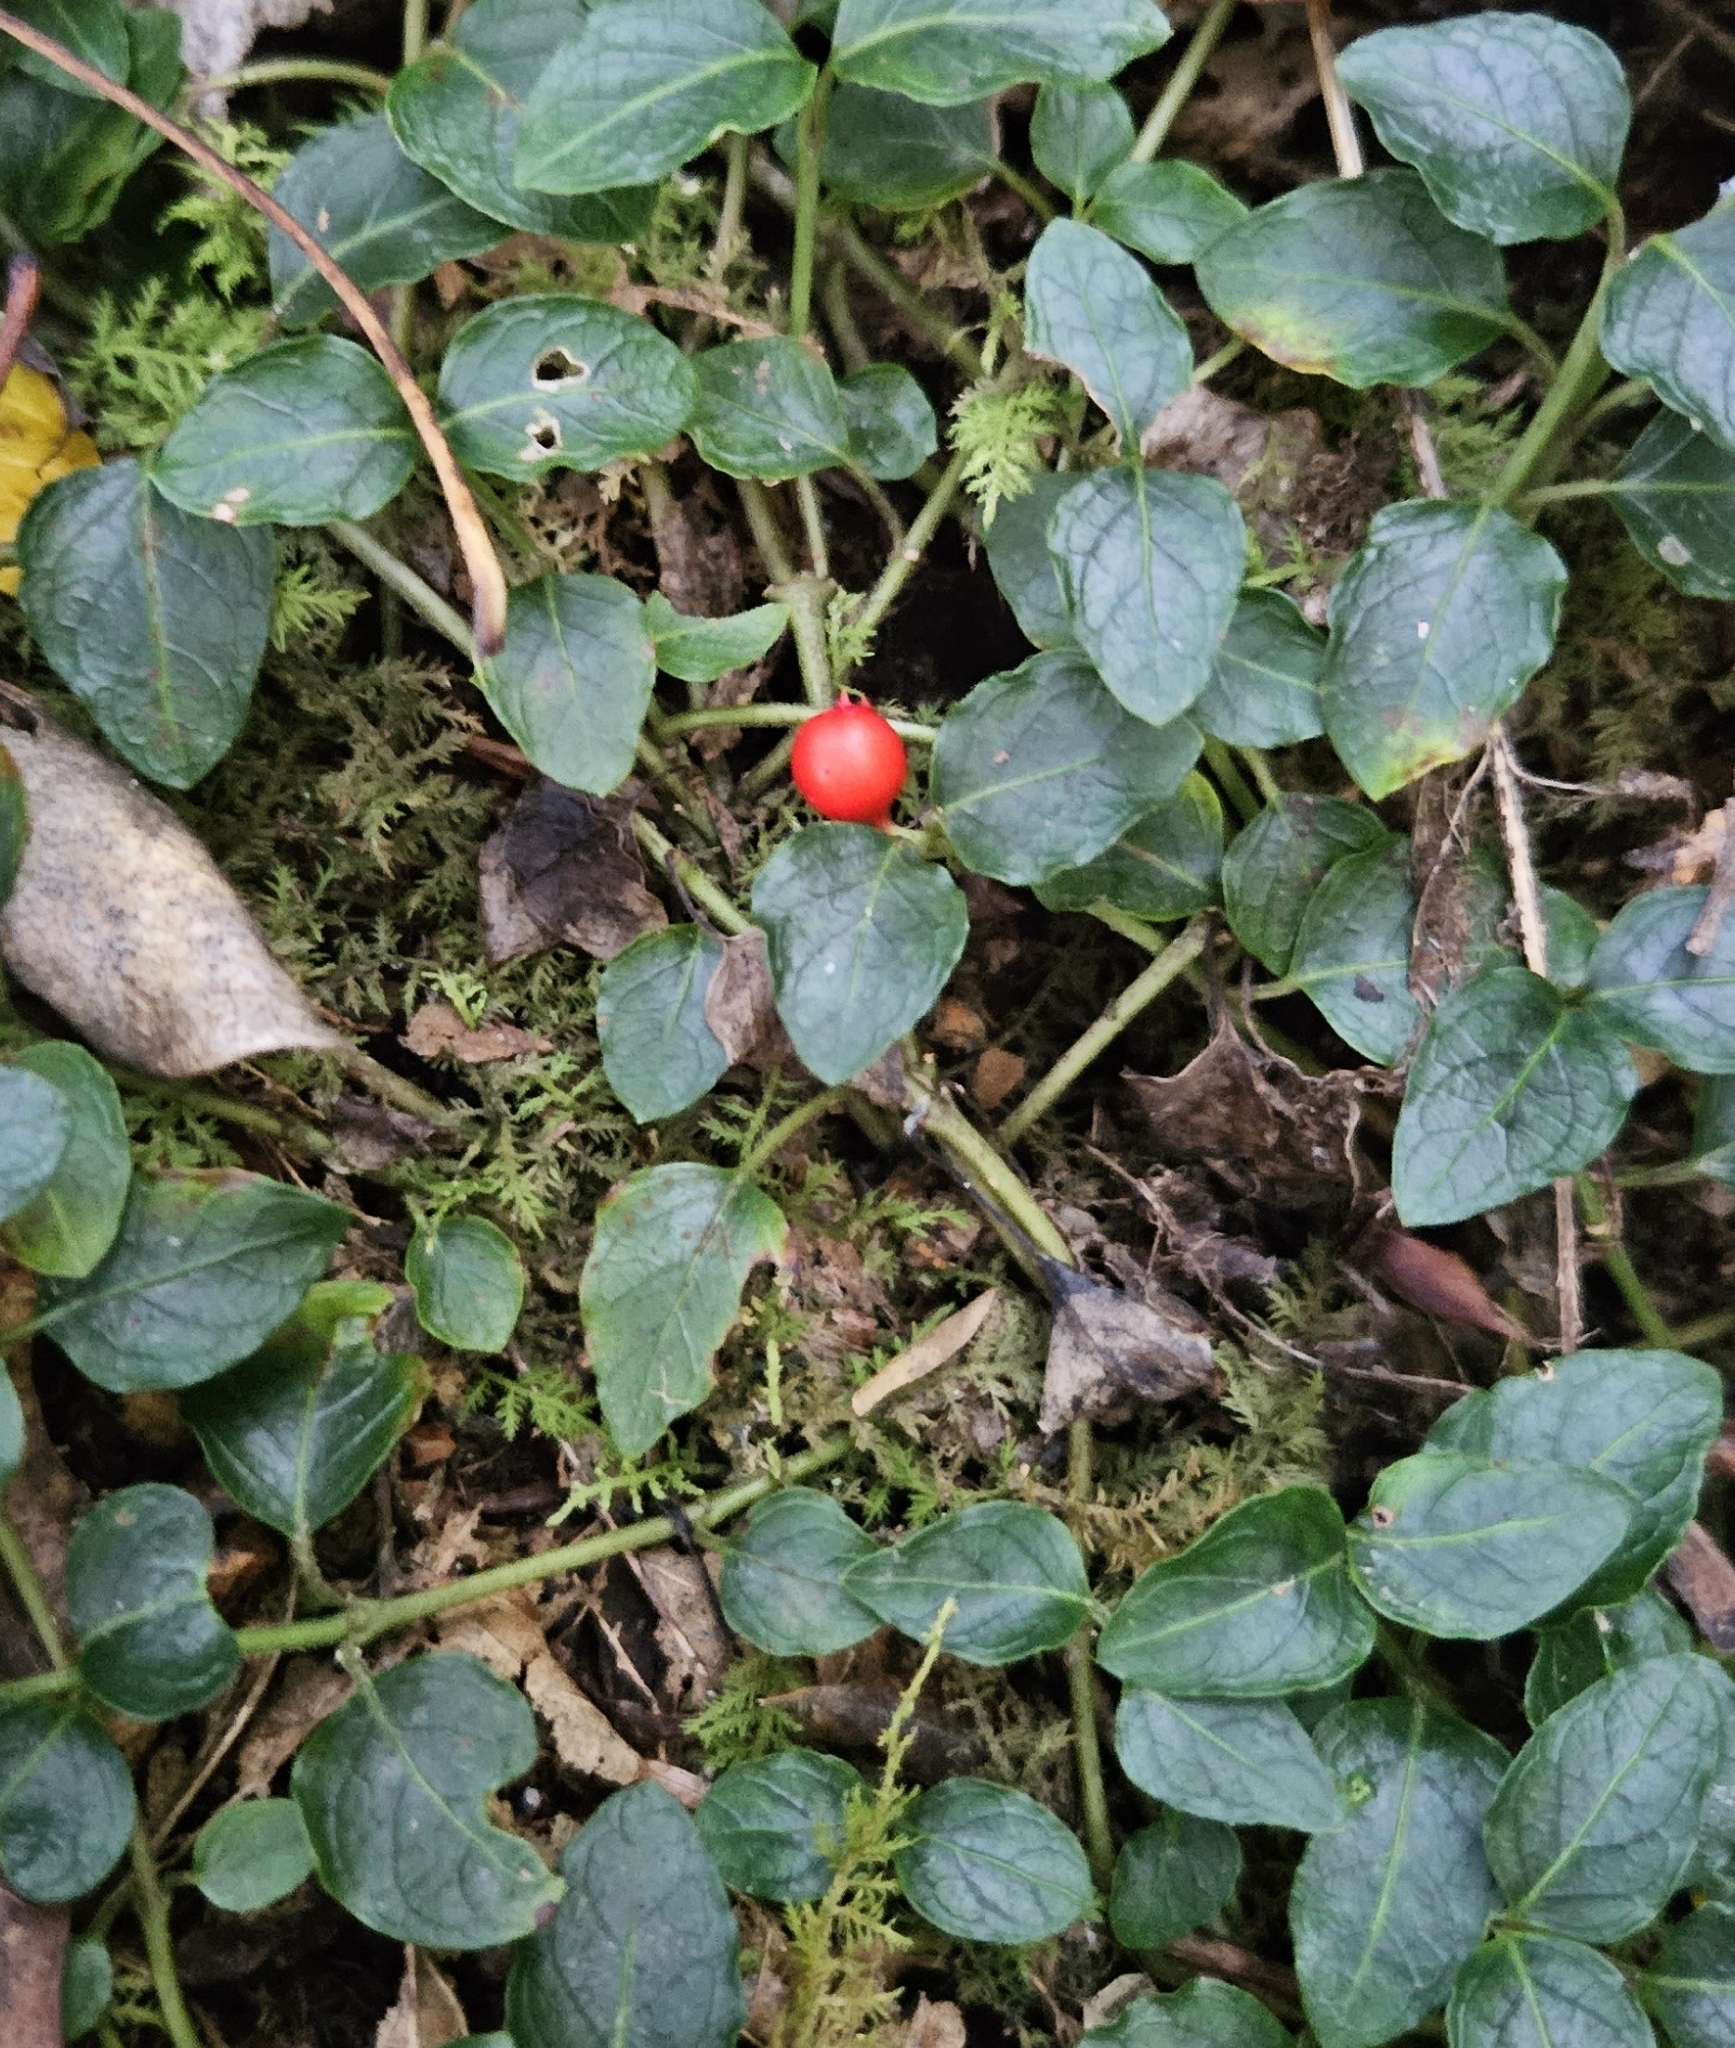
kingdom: Plantae
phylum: Tracheophyta
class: Magnoliopsida
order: Gentianales
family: Rubiaceae
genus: Mitchella
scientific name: Mitchella repens
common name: Partridge-berry
